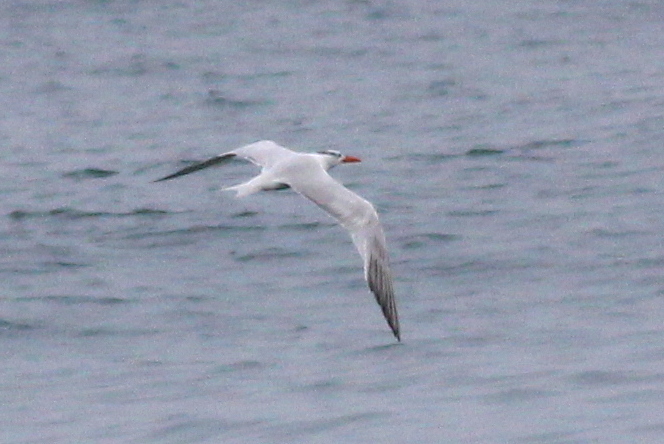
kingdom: Animalia
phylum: Chordata
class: Aves
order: Charadriiformes
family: Laridae
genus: Thalasseus
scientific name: Thalasseus maximus
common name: Royal tern
